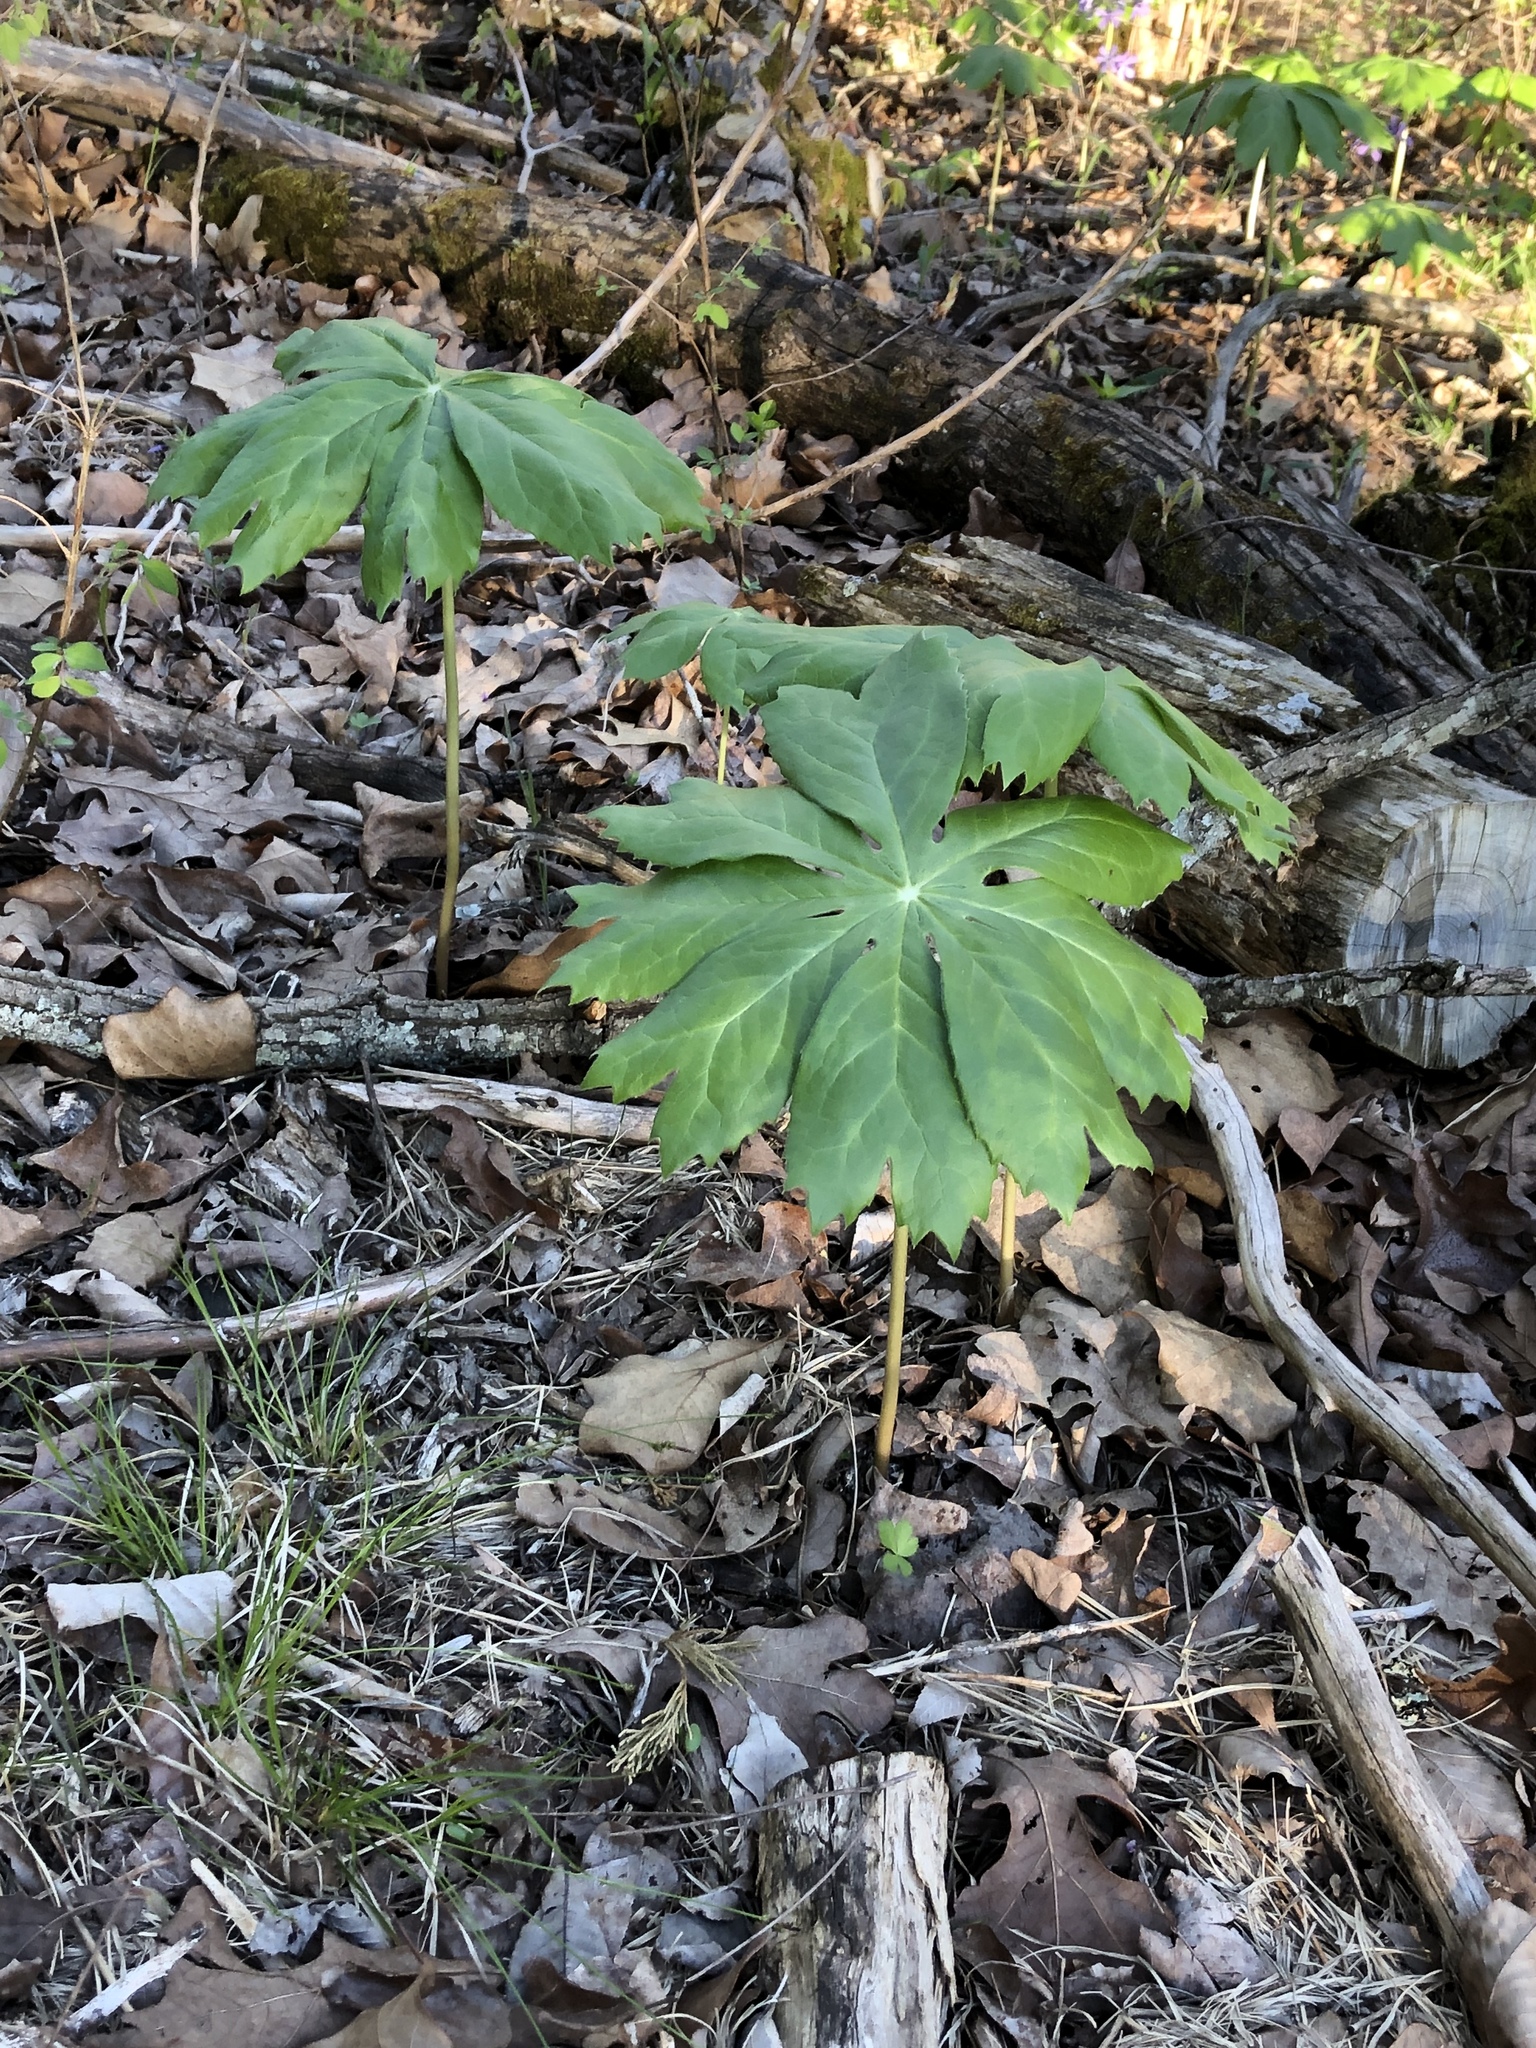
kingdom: Plantae
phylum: Tracheophyta
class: Magnoliopsida
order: Ranunculales
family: Berberidaceae
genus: Podophyllum
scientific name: Podophyllum peltatum
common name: Wild mandrake
